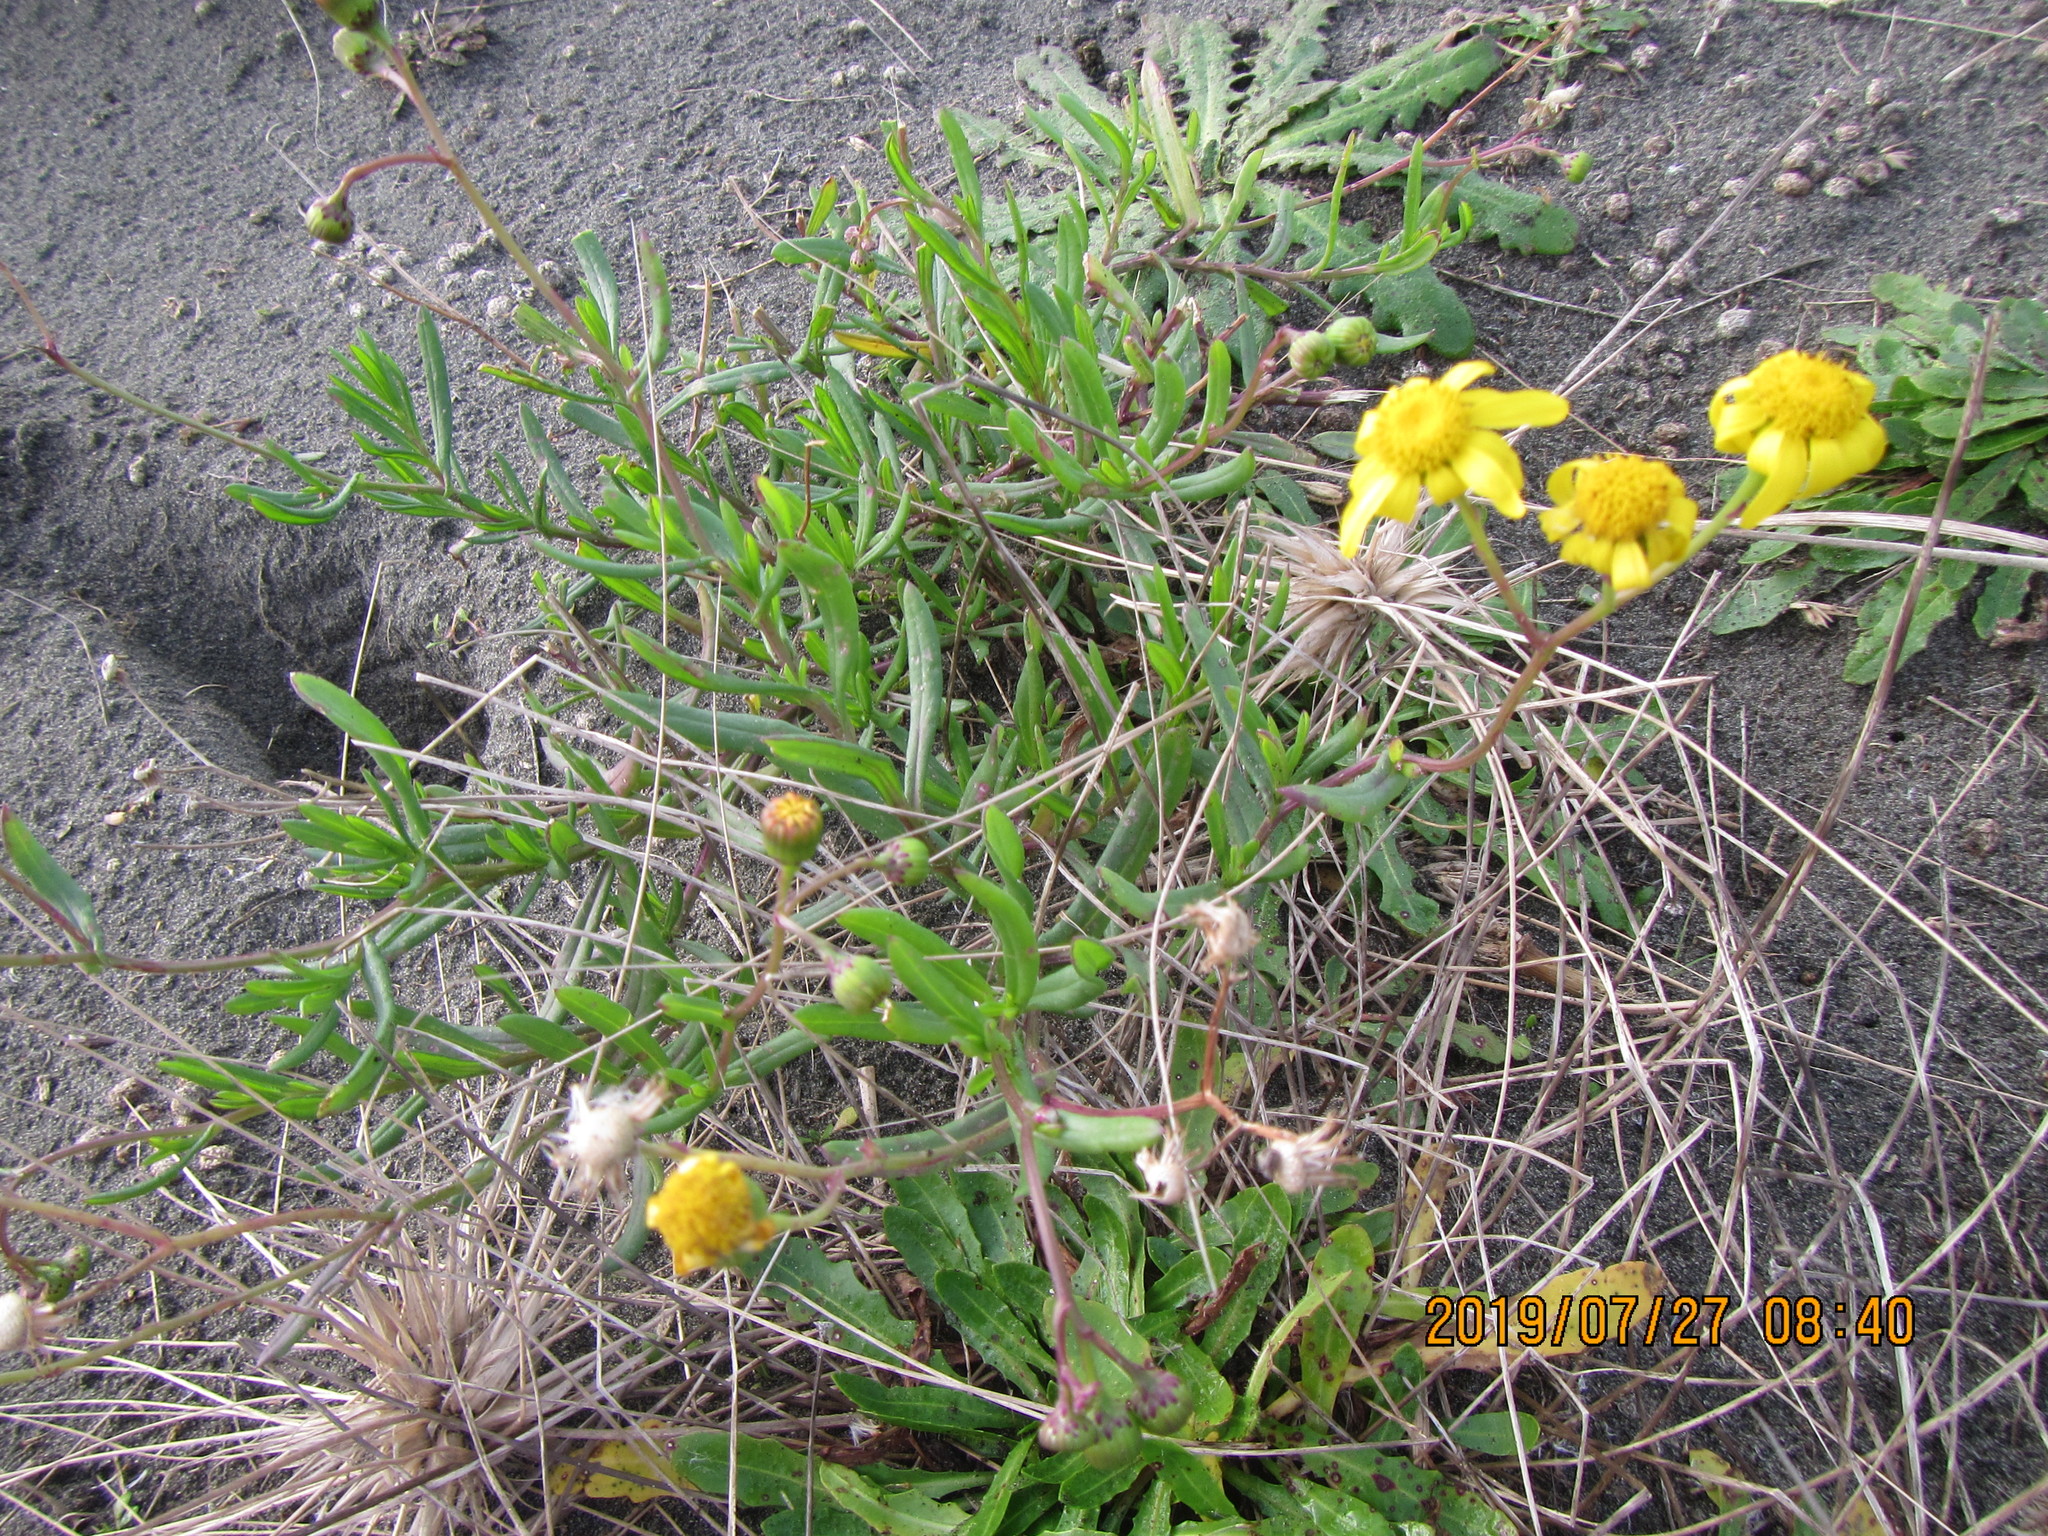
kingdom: Plantae
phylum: Tracheophyta
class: Magnoliopsida
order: Asterales
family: Asteraceae
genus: Senecio
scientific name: Senecio skirrhodon
